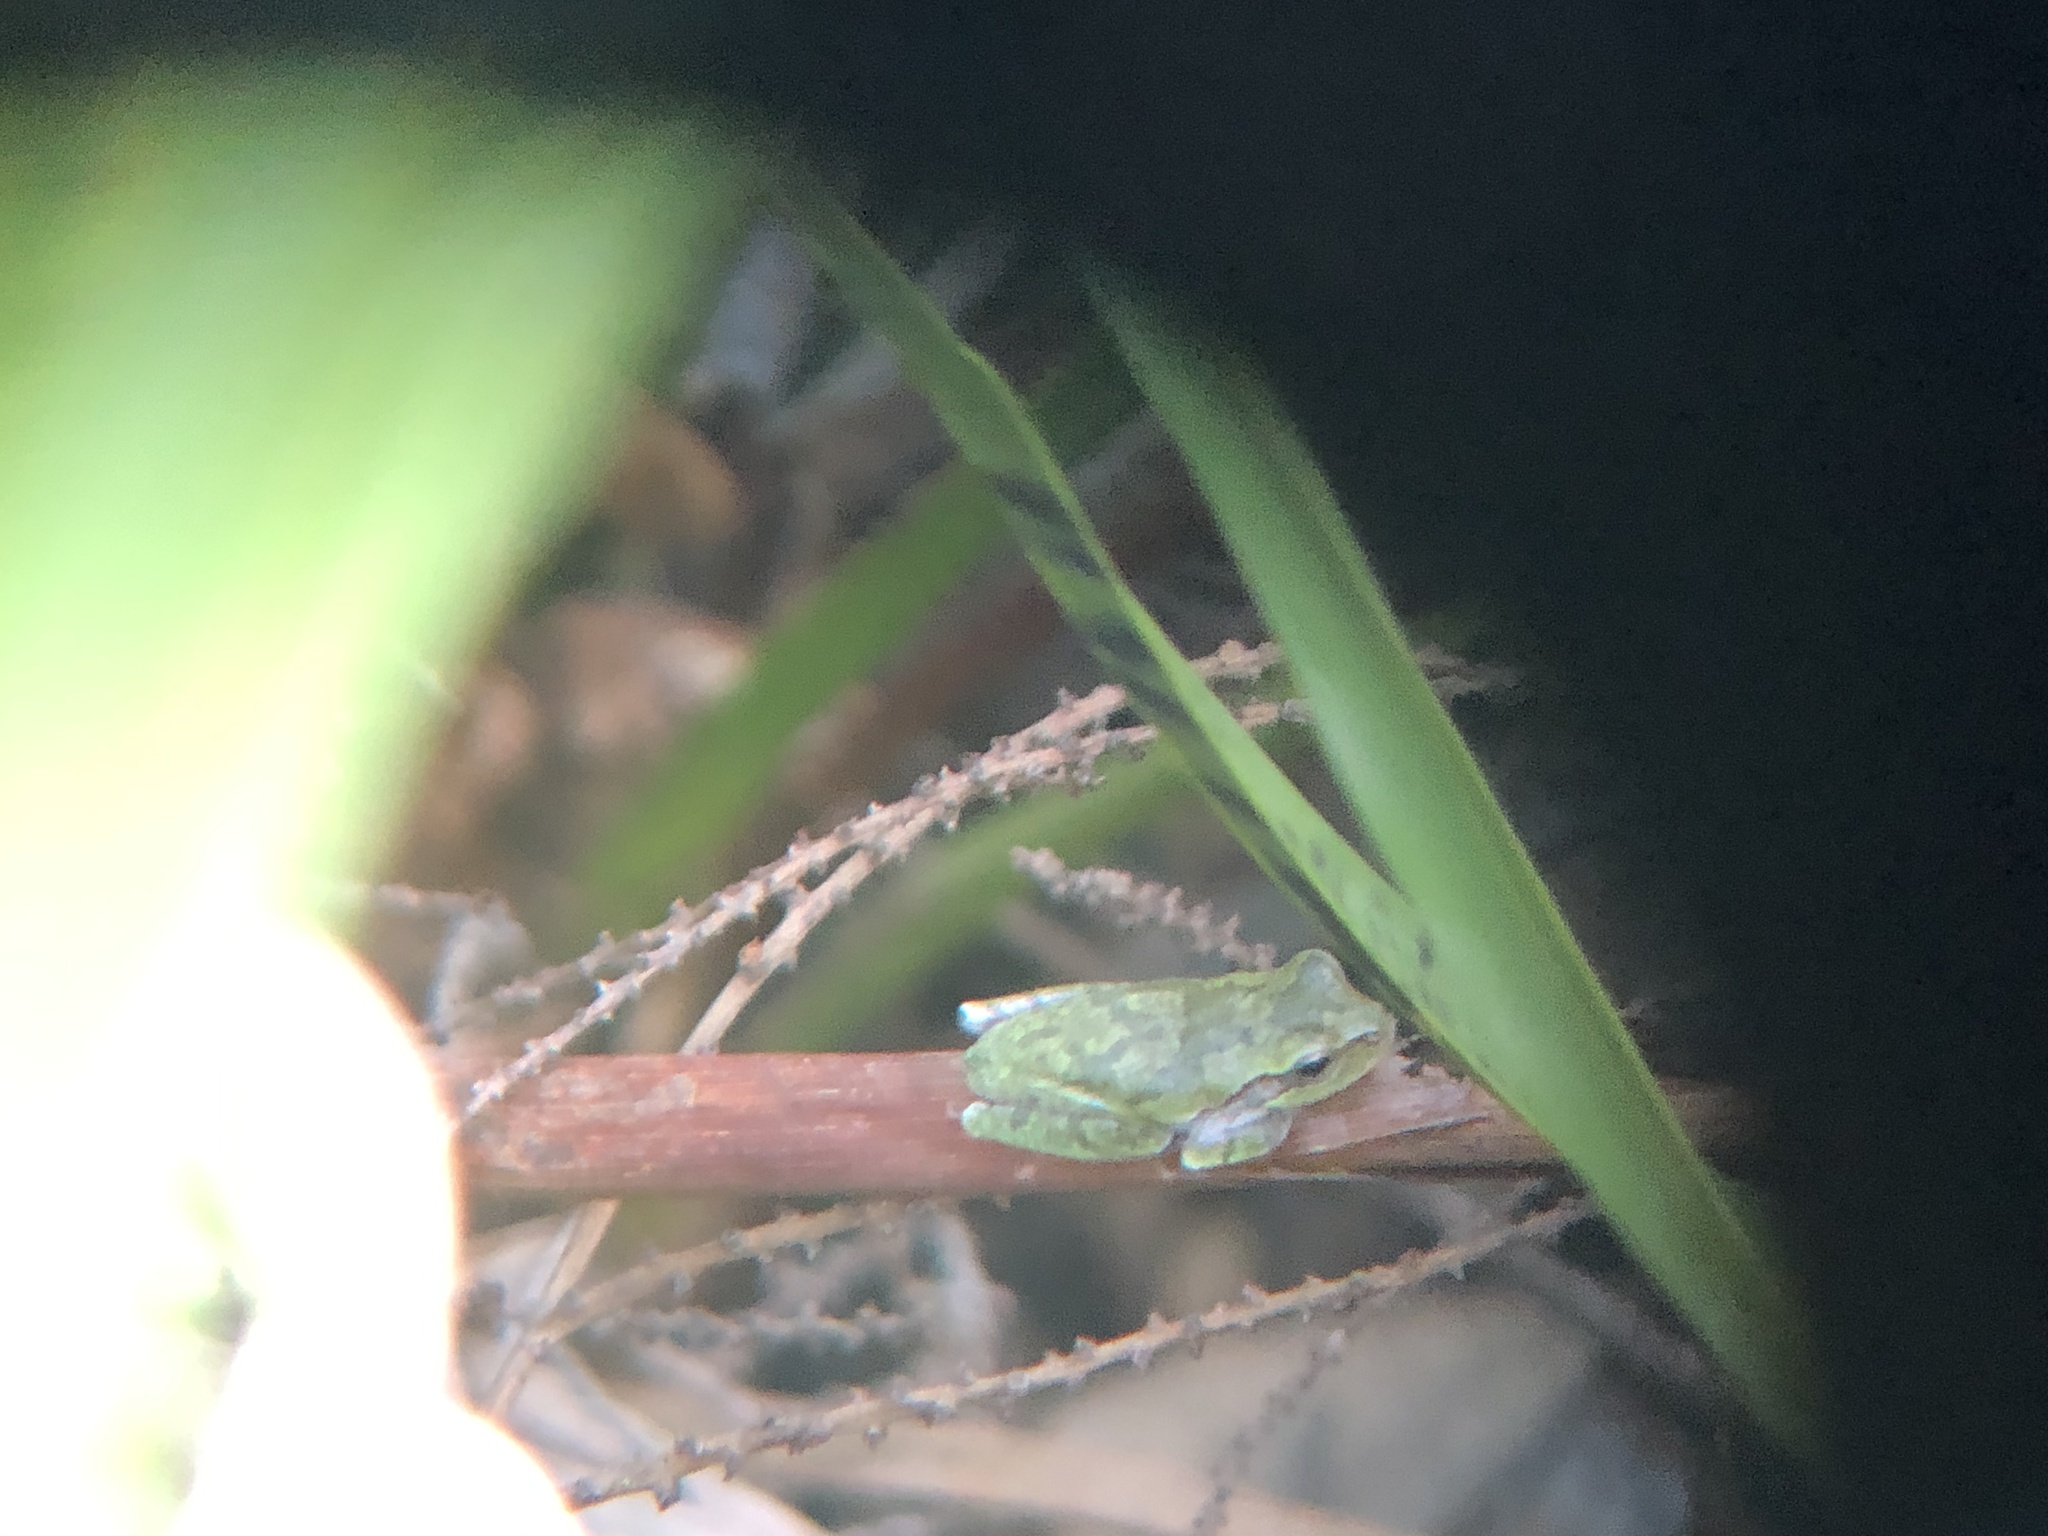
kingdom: Animalia
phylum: Chordata
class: Amphibia
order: Anura
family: Hylidae
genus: Hyla
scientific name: Hyla femoralis
